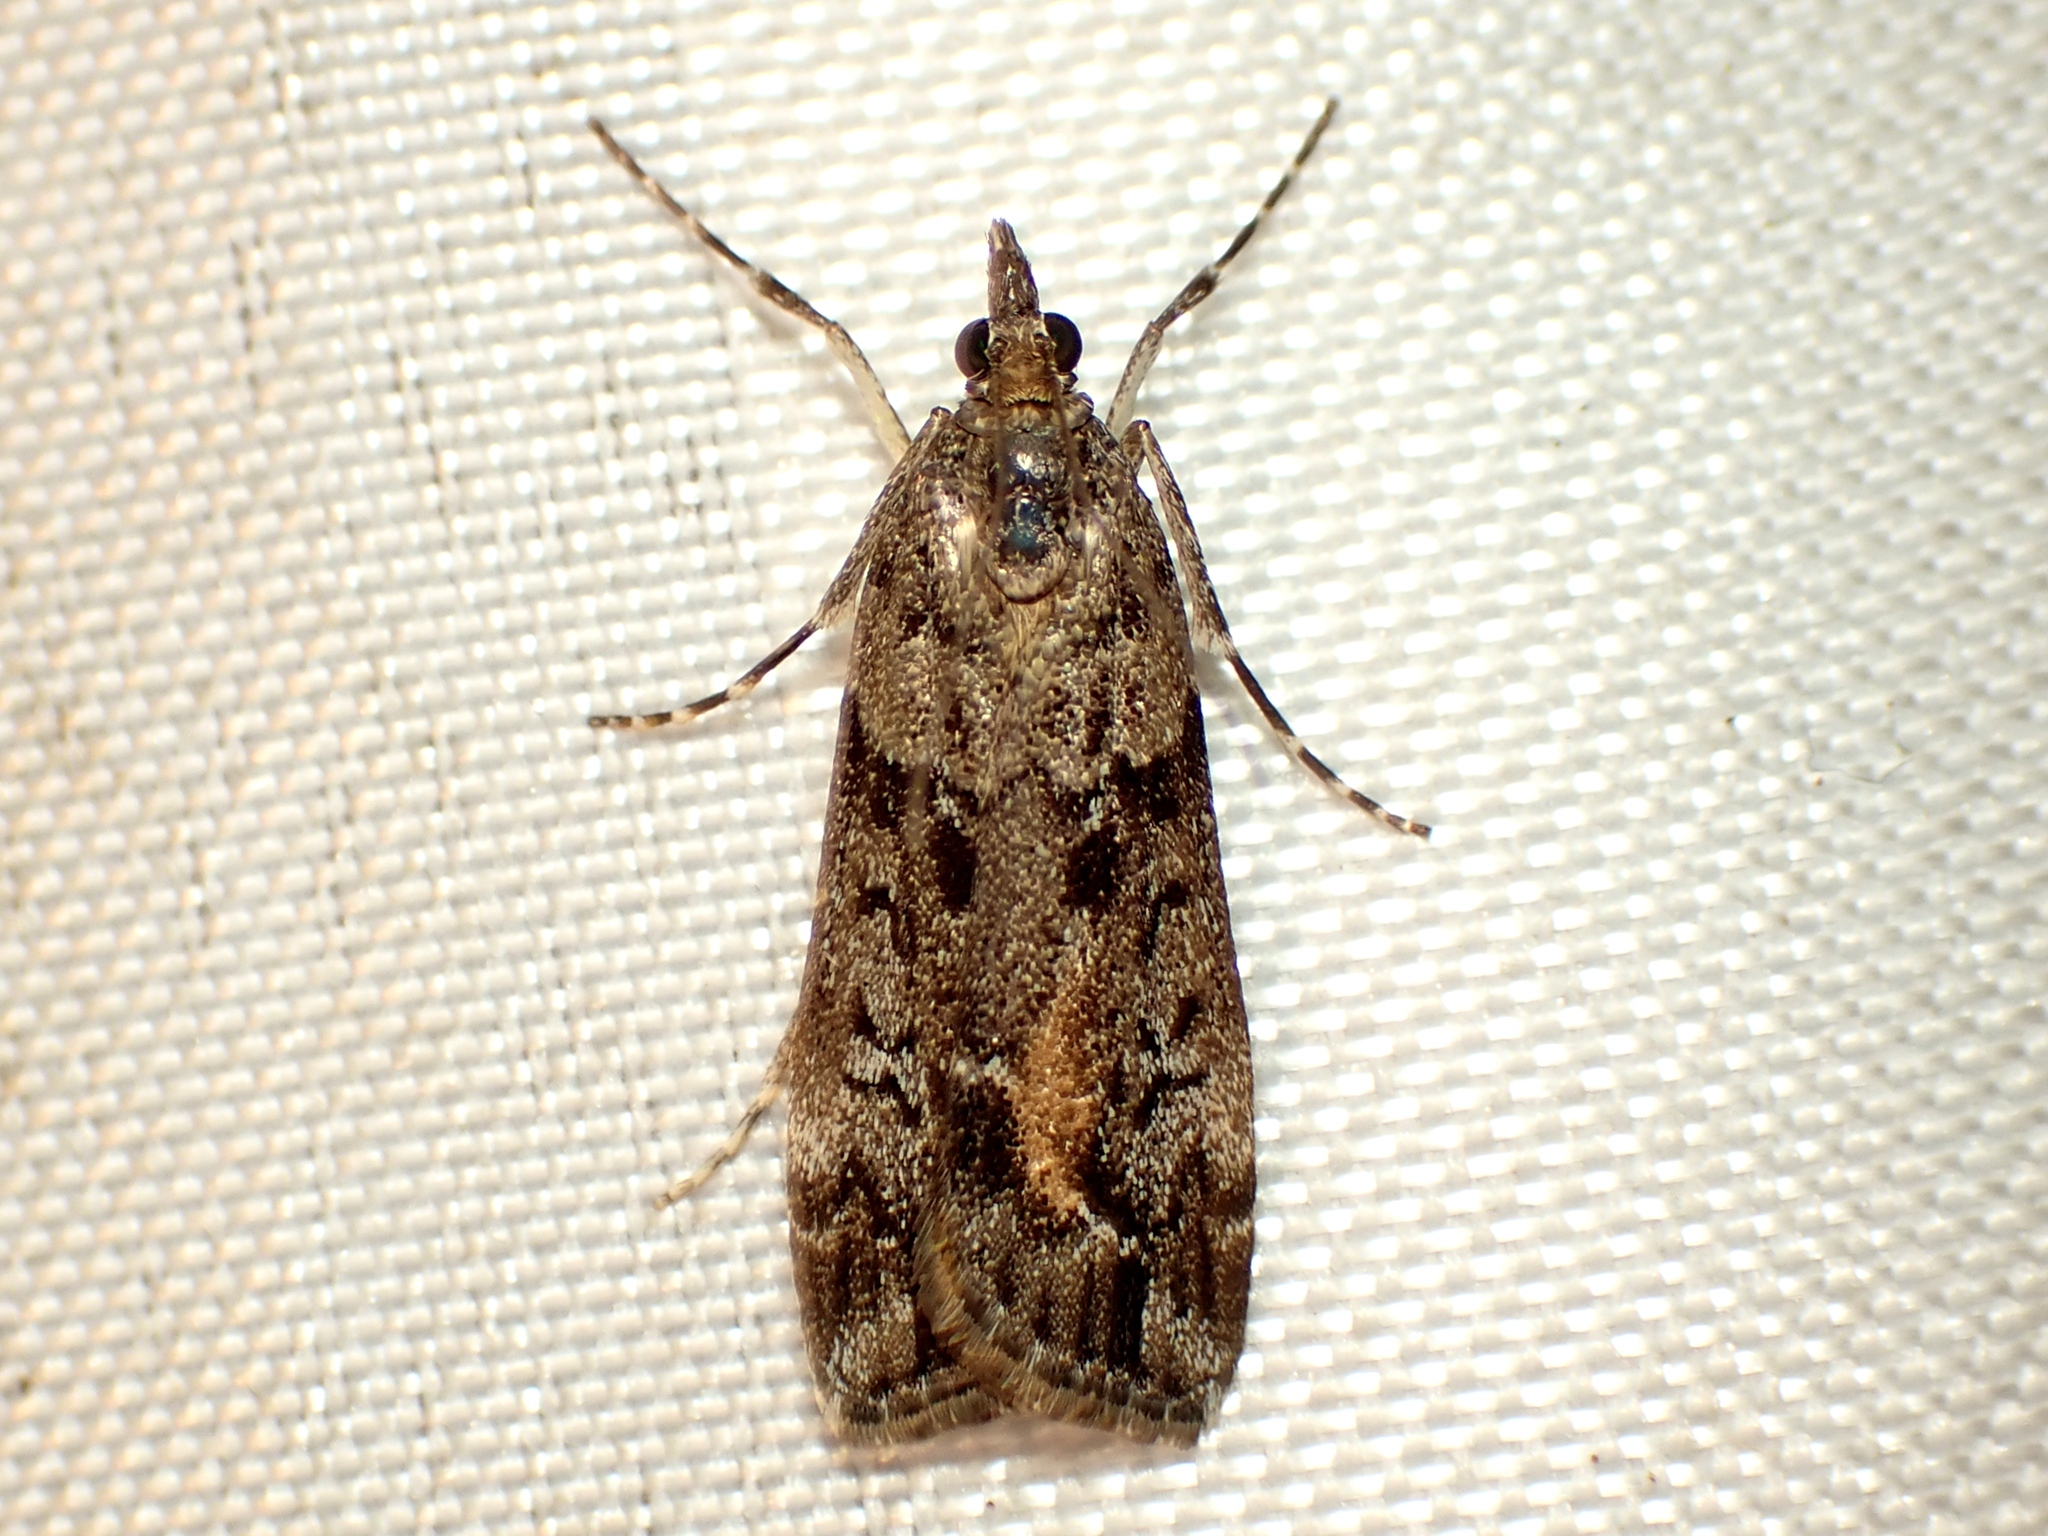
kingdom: Animalia
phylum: Arthropoda
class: Insecta
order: Lepidoptera
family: Crambidae
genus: Eudonia
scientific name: Eudonia submarginalis
